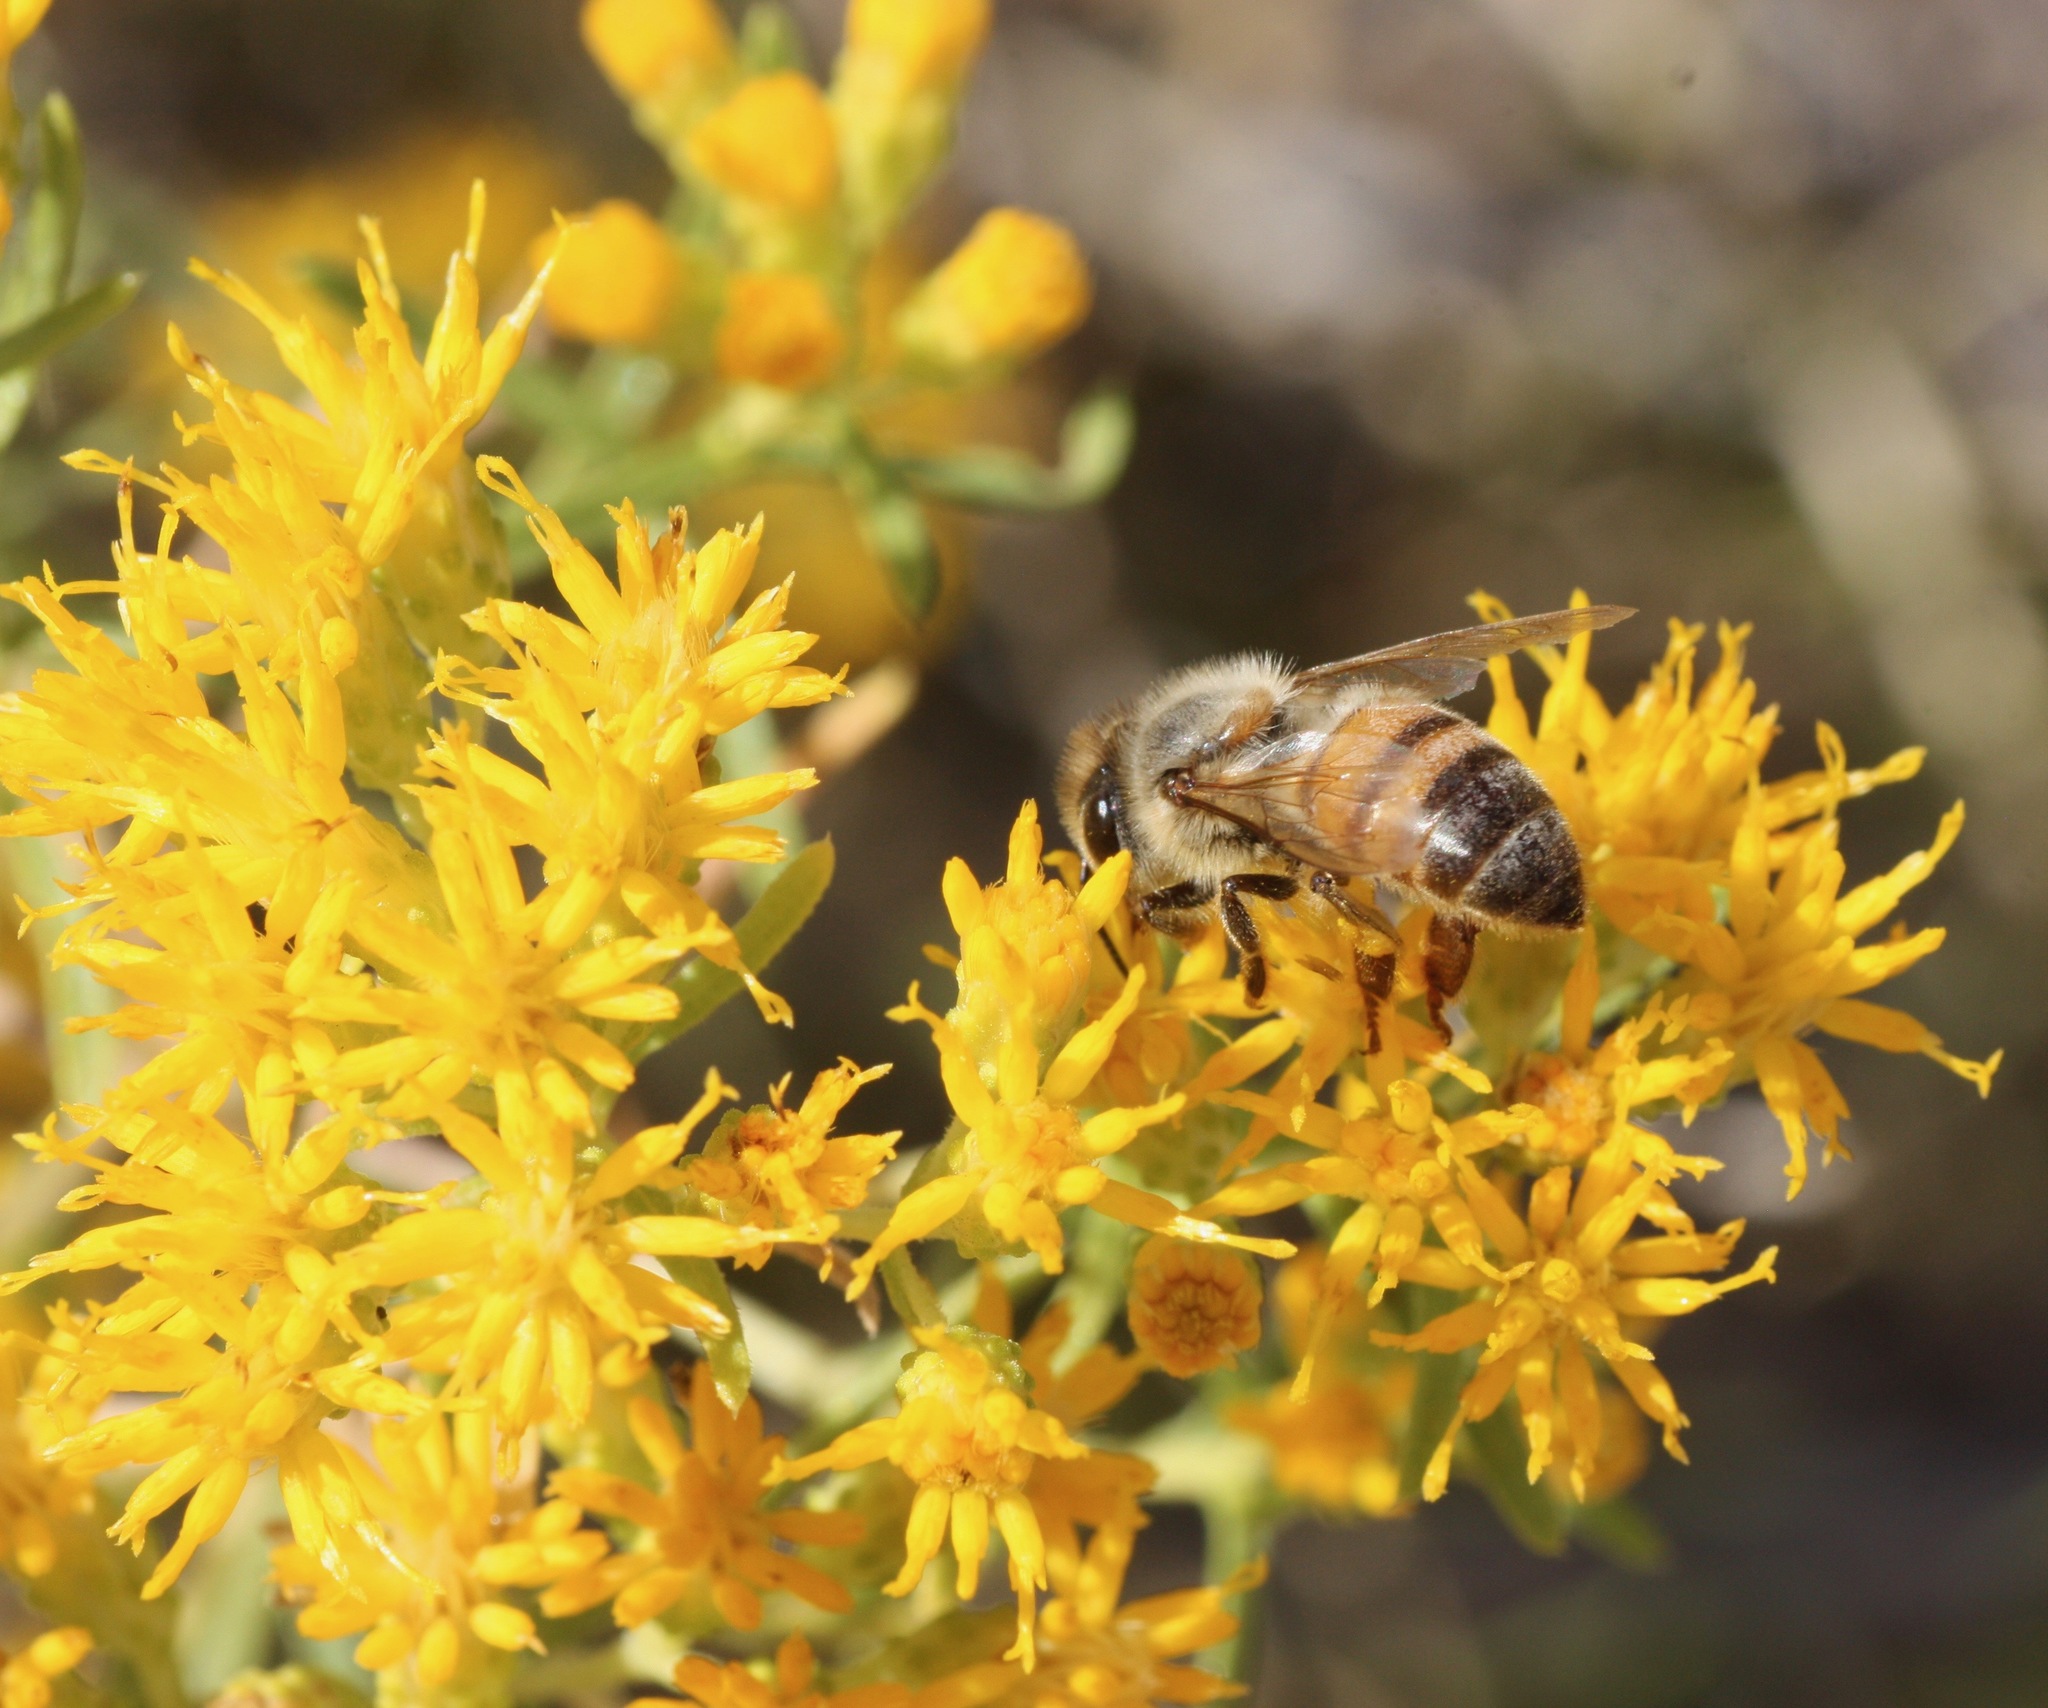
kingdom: Animalia
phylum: Arthropoda
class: Insecta
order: Hymenoptera
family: Apidae
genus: Apis
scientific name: Apis mellifera
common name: Honey bee
